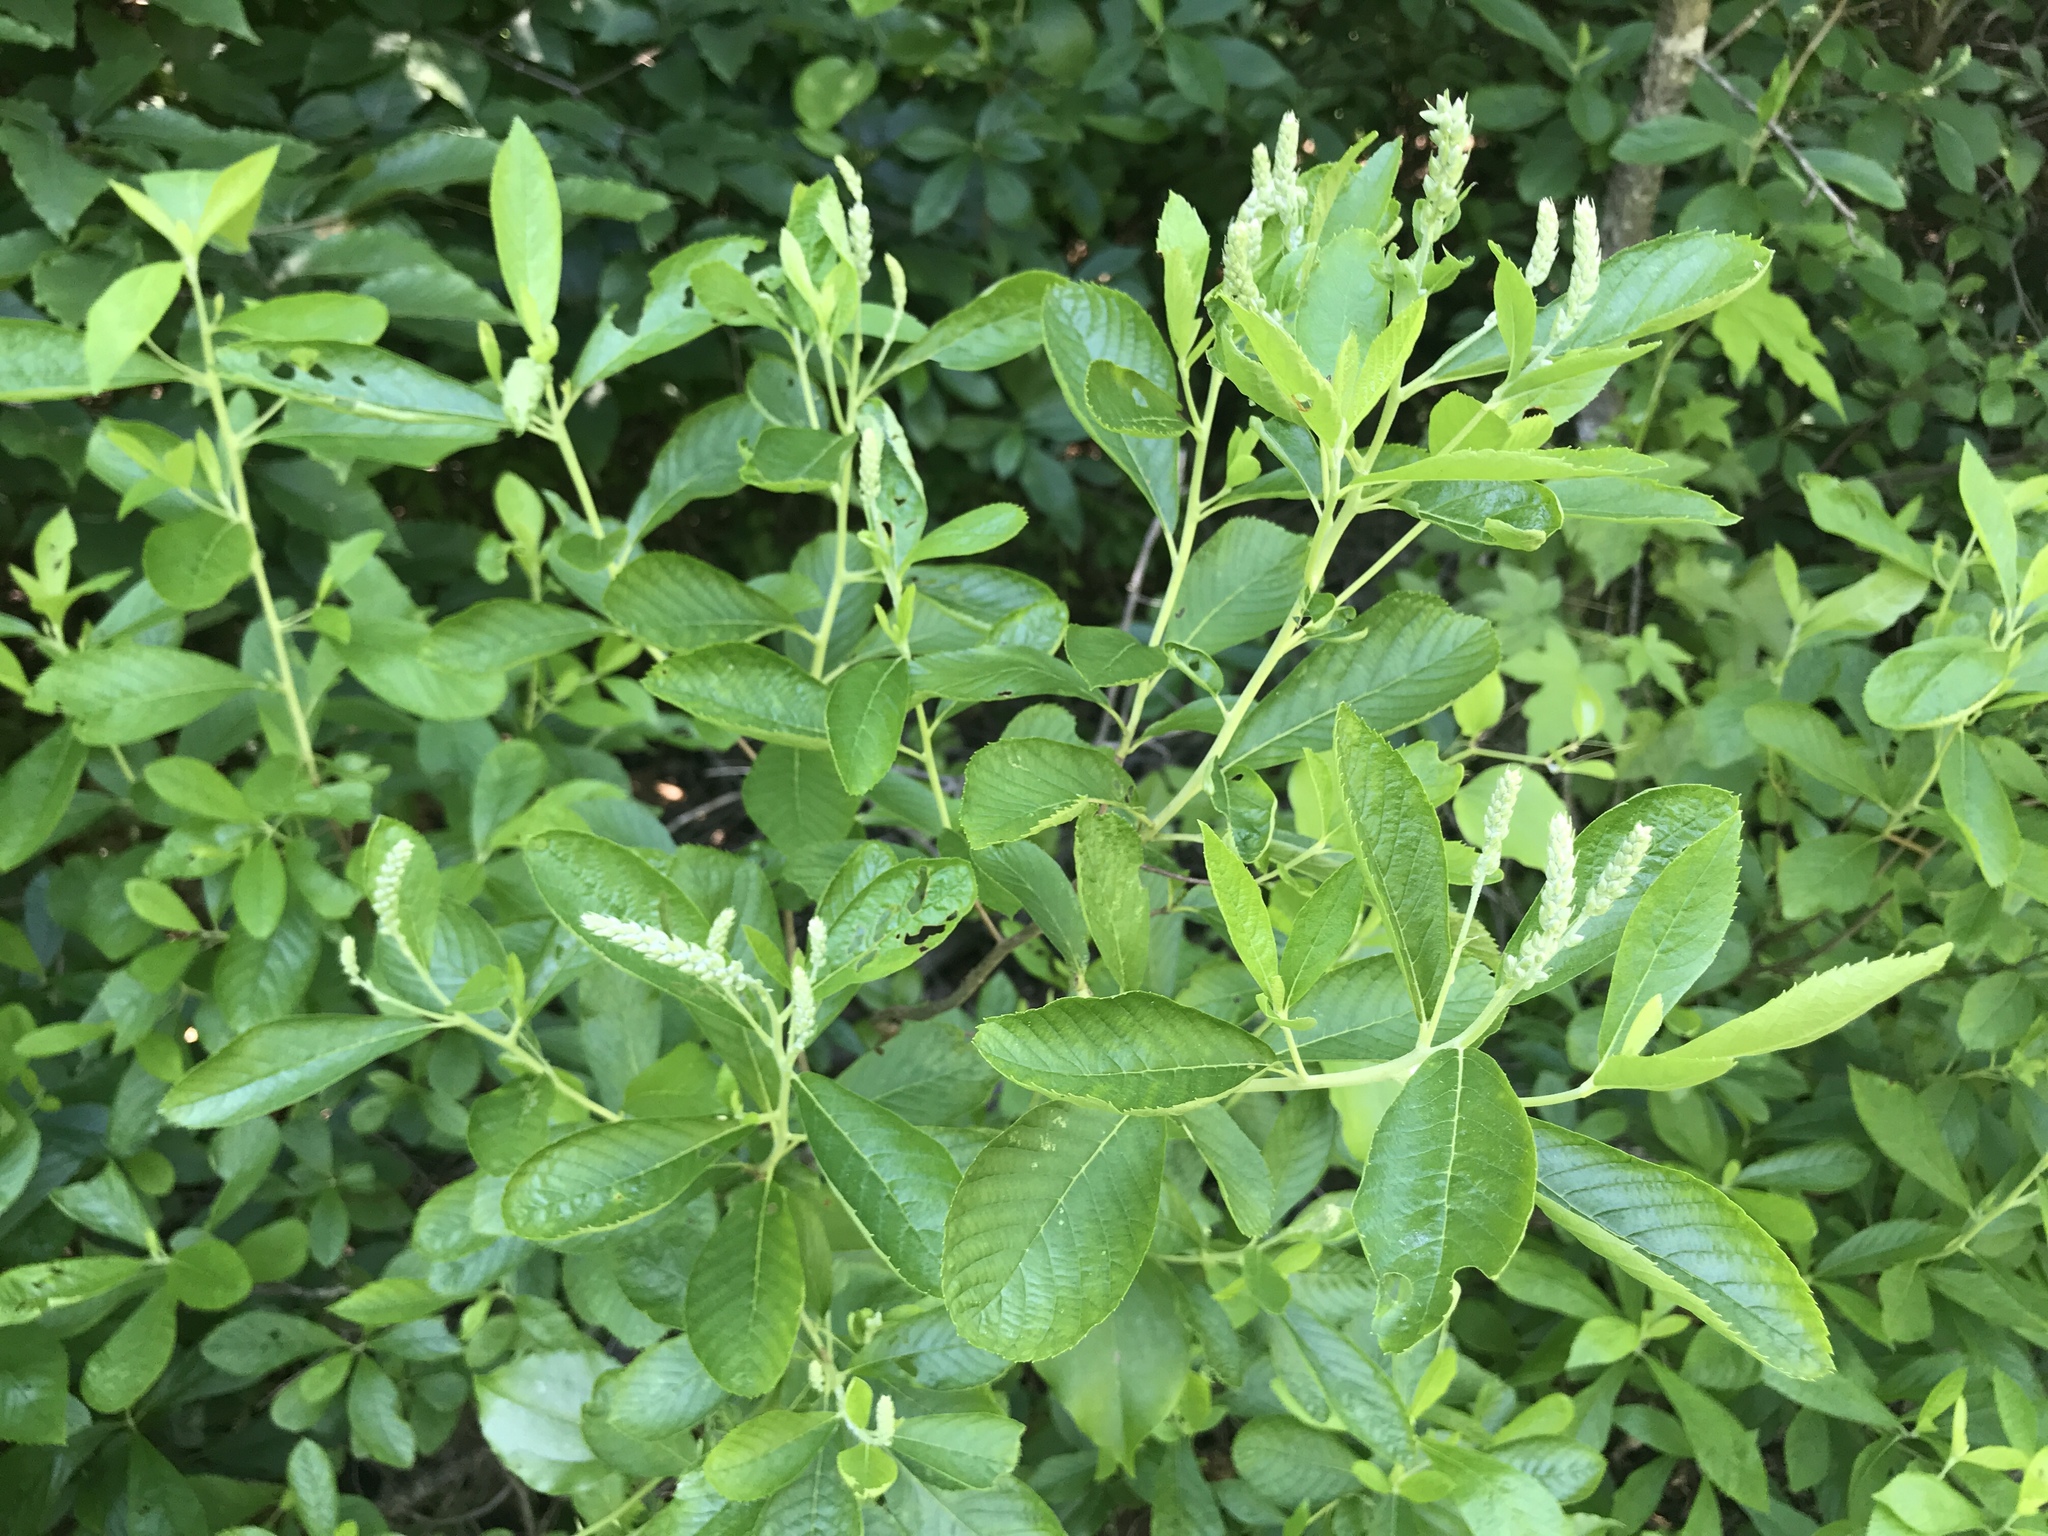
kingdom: Plantae
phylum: Tracheophyta
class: Magnoliopsida
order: Ericales
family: Clethraceae
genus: Clethra
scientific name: Clethra alnifolia
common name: Sweet pepperbush
